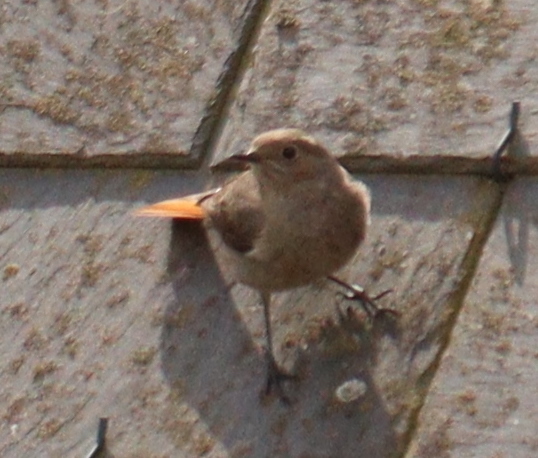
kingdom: Animalia
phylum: Chordata
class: Aves
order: Passeriformes
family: Muscicapidae
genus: Phoenicurus
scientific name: Phoenicurus ochruros
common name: Black redstart
